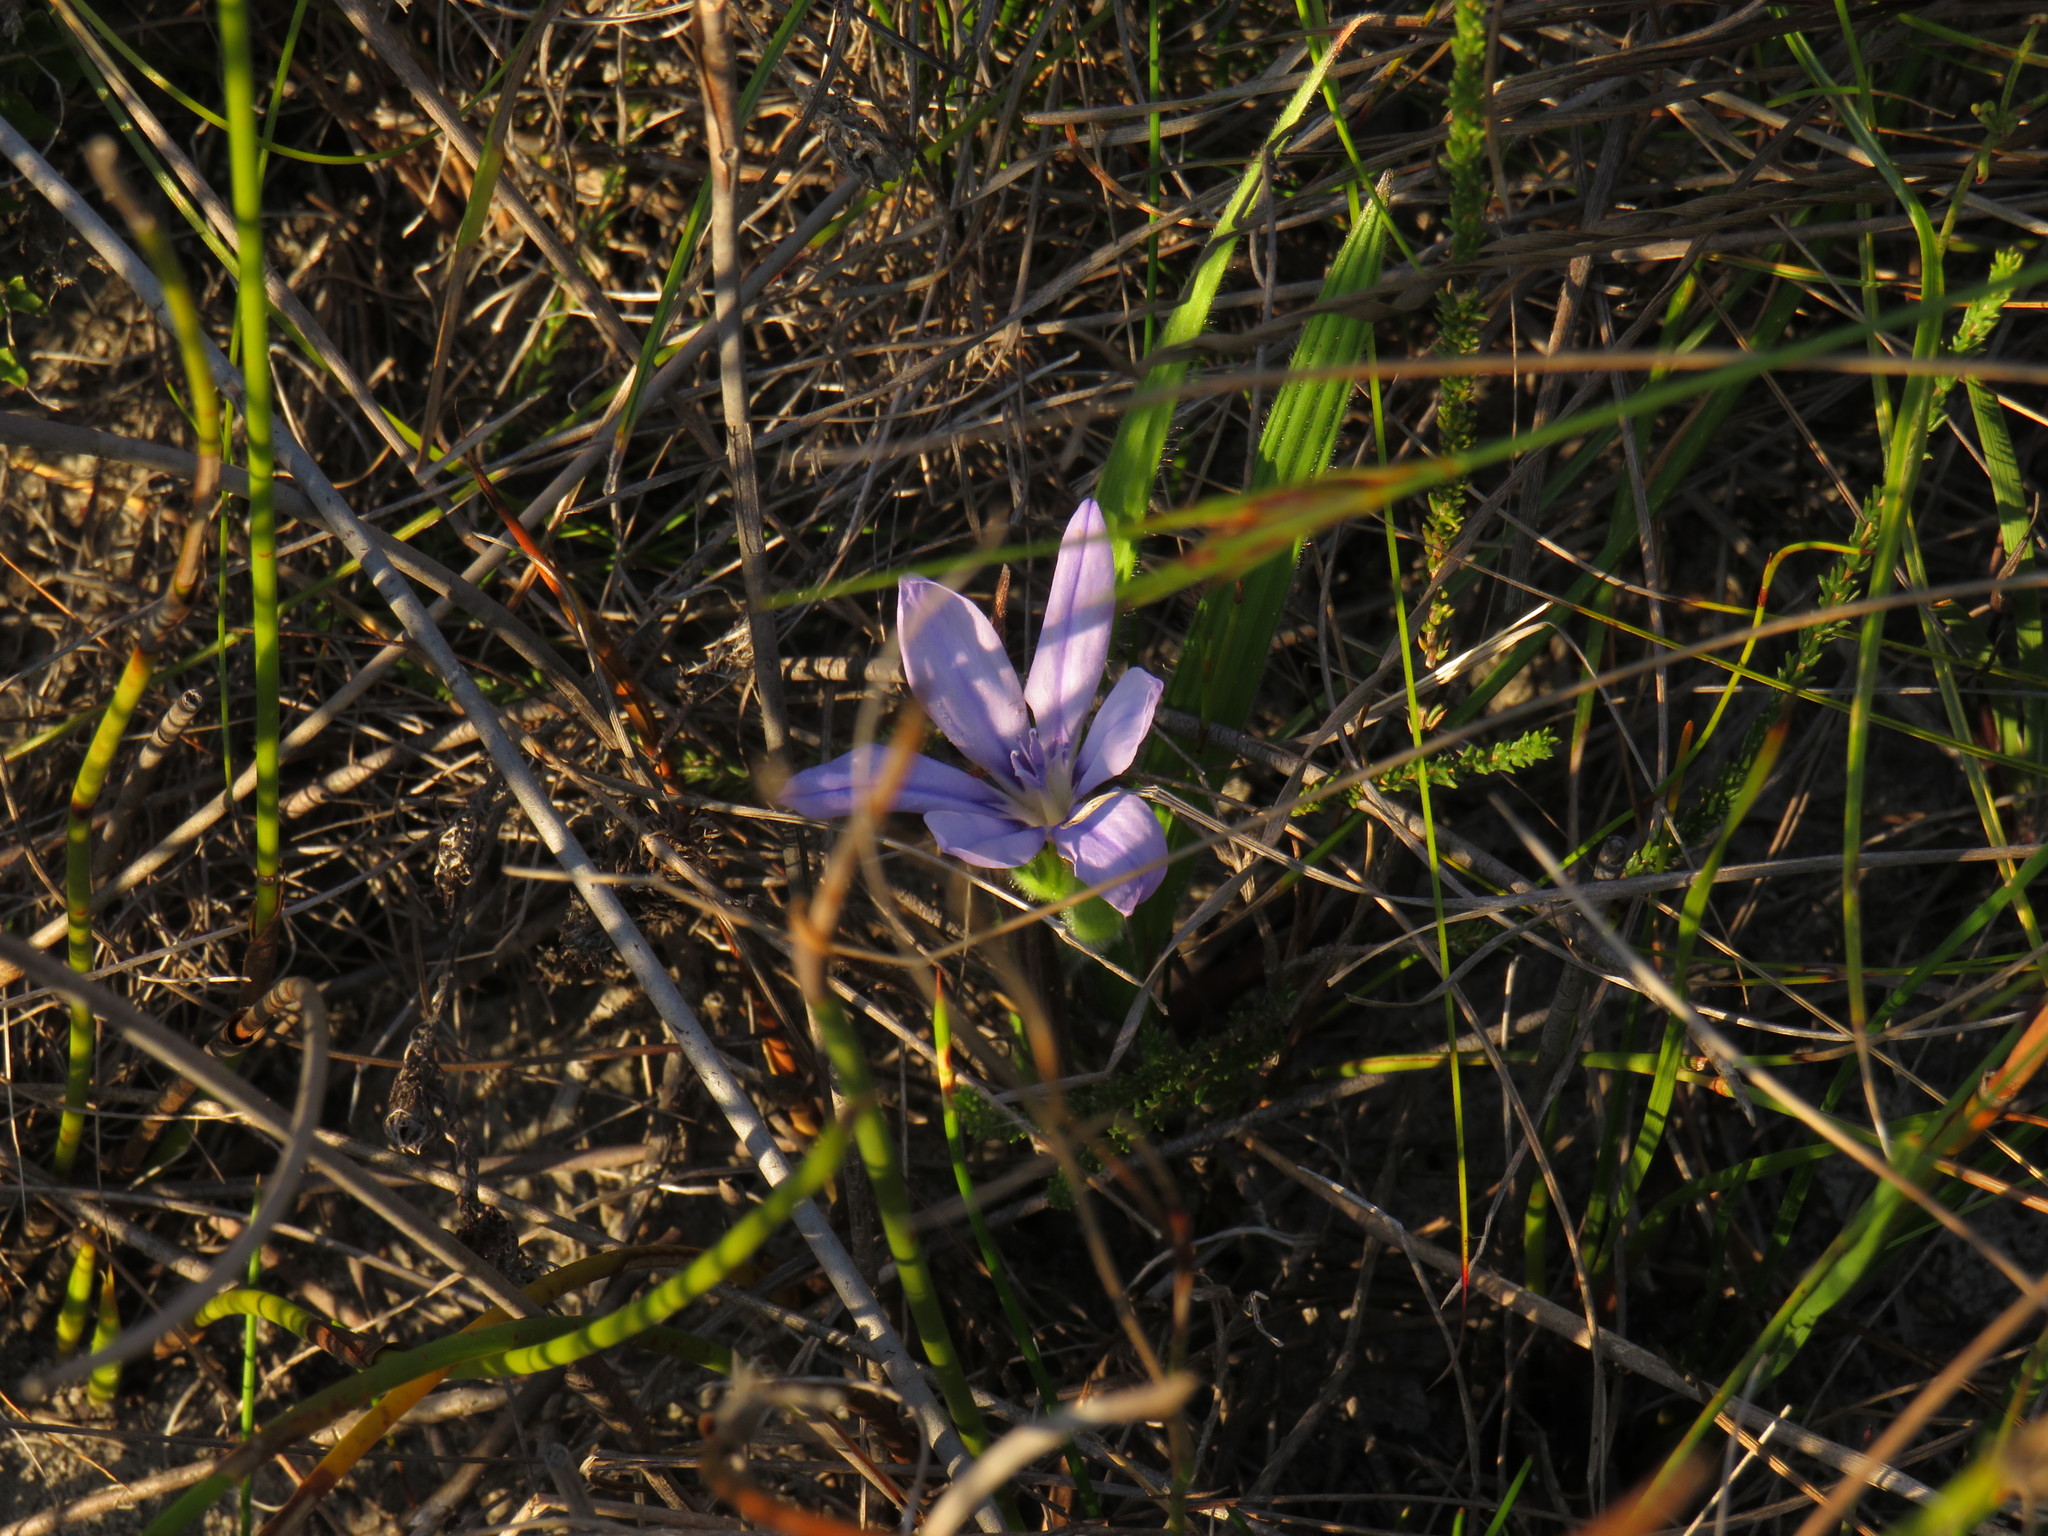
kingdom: Plantae
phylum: Tracheophyta
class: Liliopsida
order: Asparagales
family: Iridaceae
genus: Babiana
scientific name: Babiana villosula
